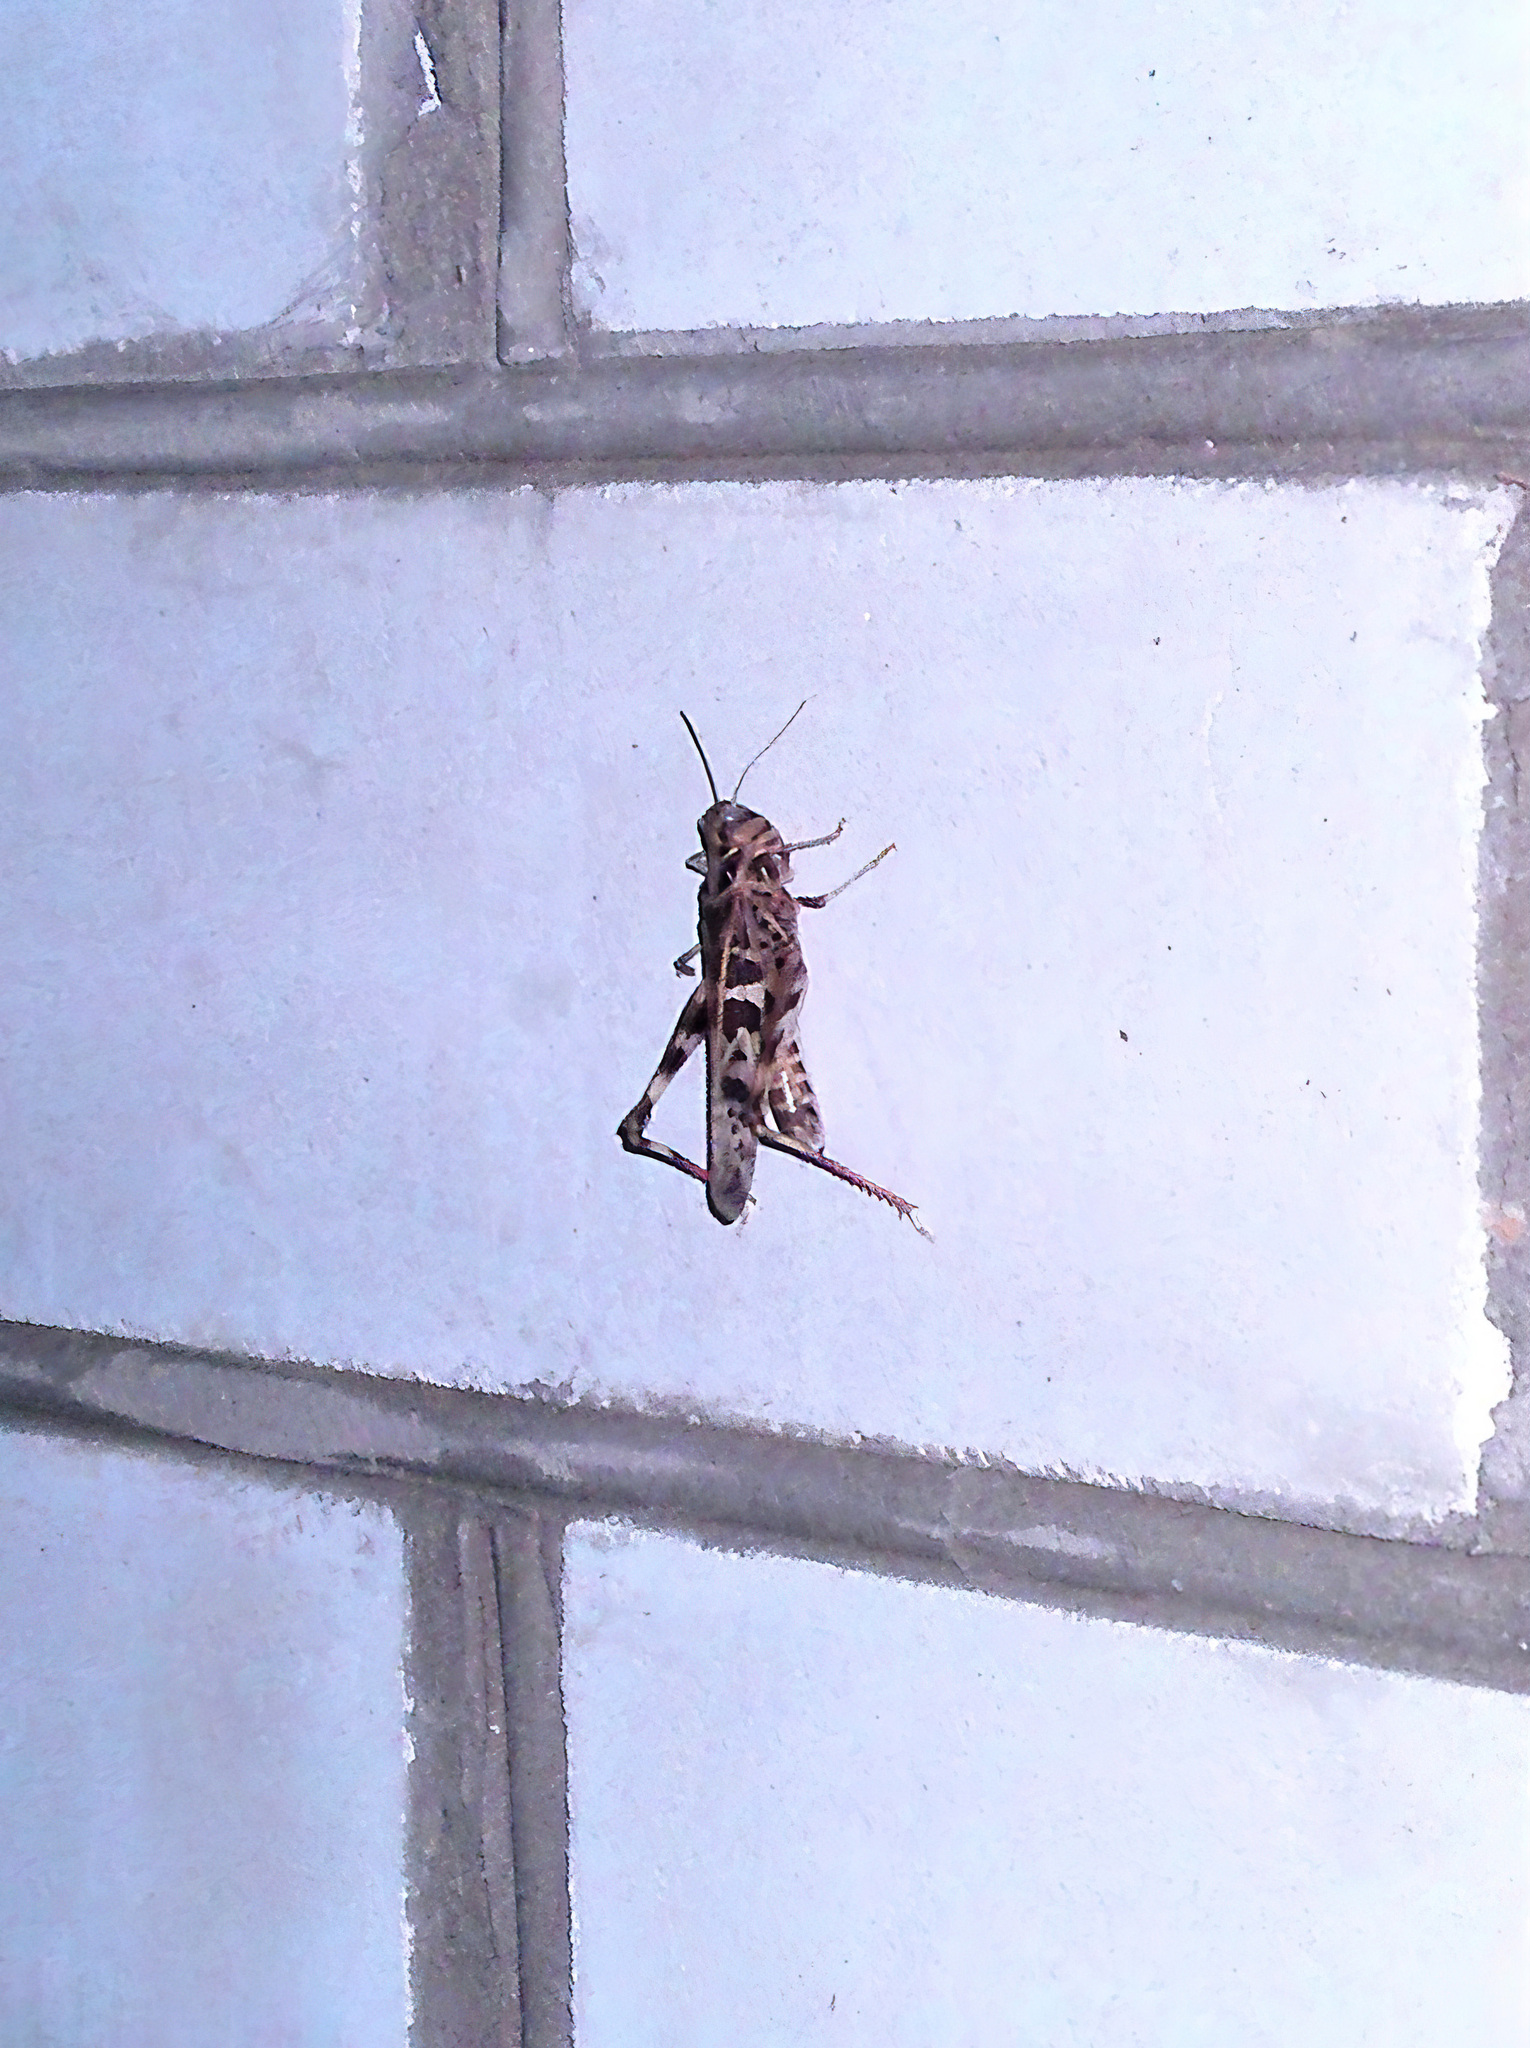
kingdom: Animalia
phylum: Arthropoda
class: Insecta
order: Orthoptera
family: Acrididae
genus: Oedaleus
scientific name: Oedaleus decorus
